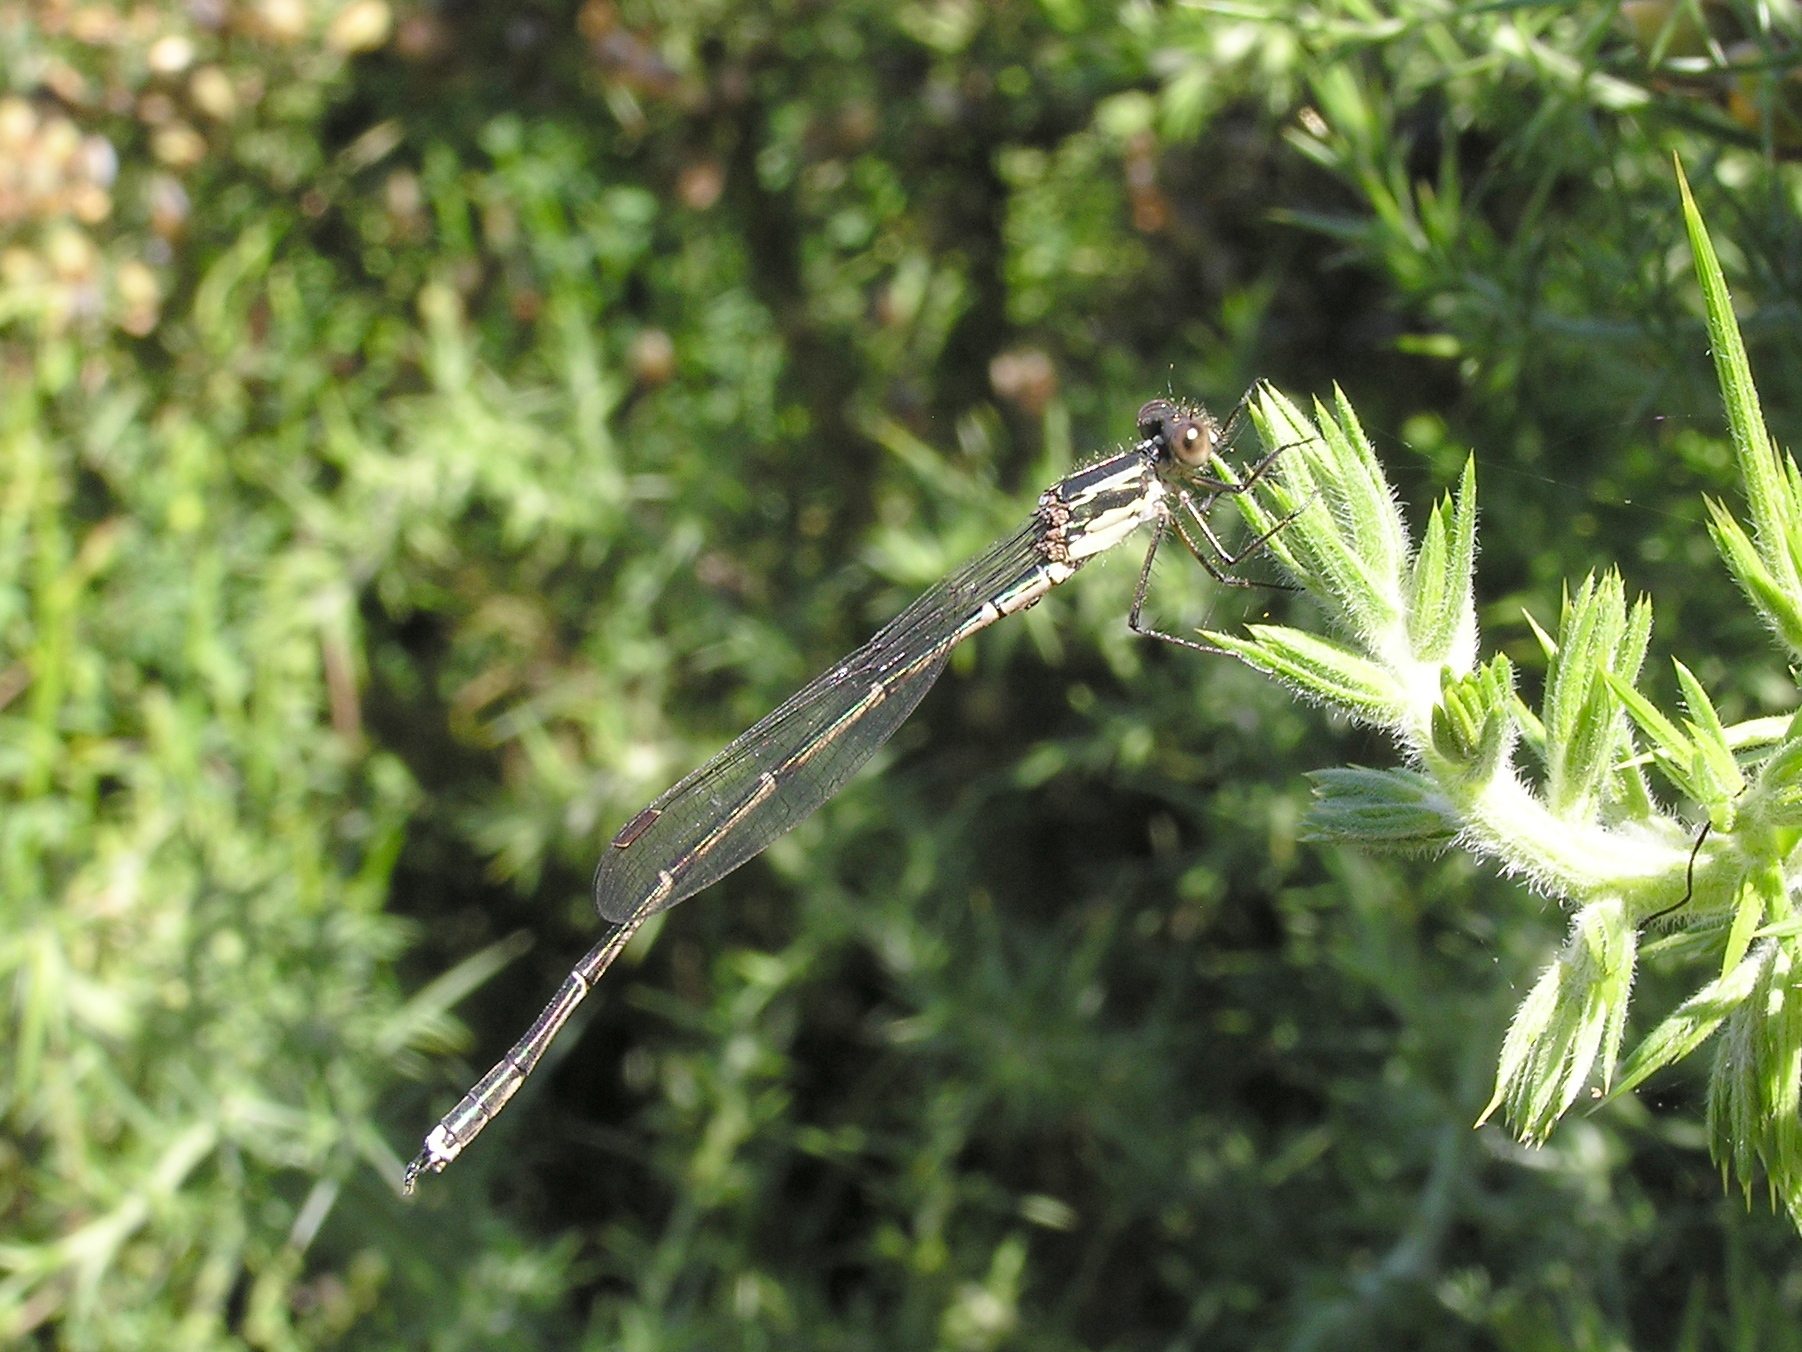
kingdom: Animalia
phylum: Arthropoda
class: Insecta
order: Odonata
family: Lestidae
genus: Austrolestes
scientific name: Austrolestes colensonis
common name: Blue damselfly
